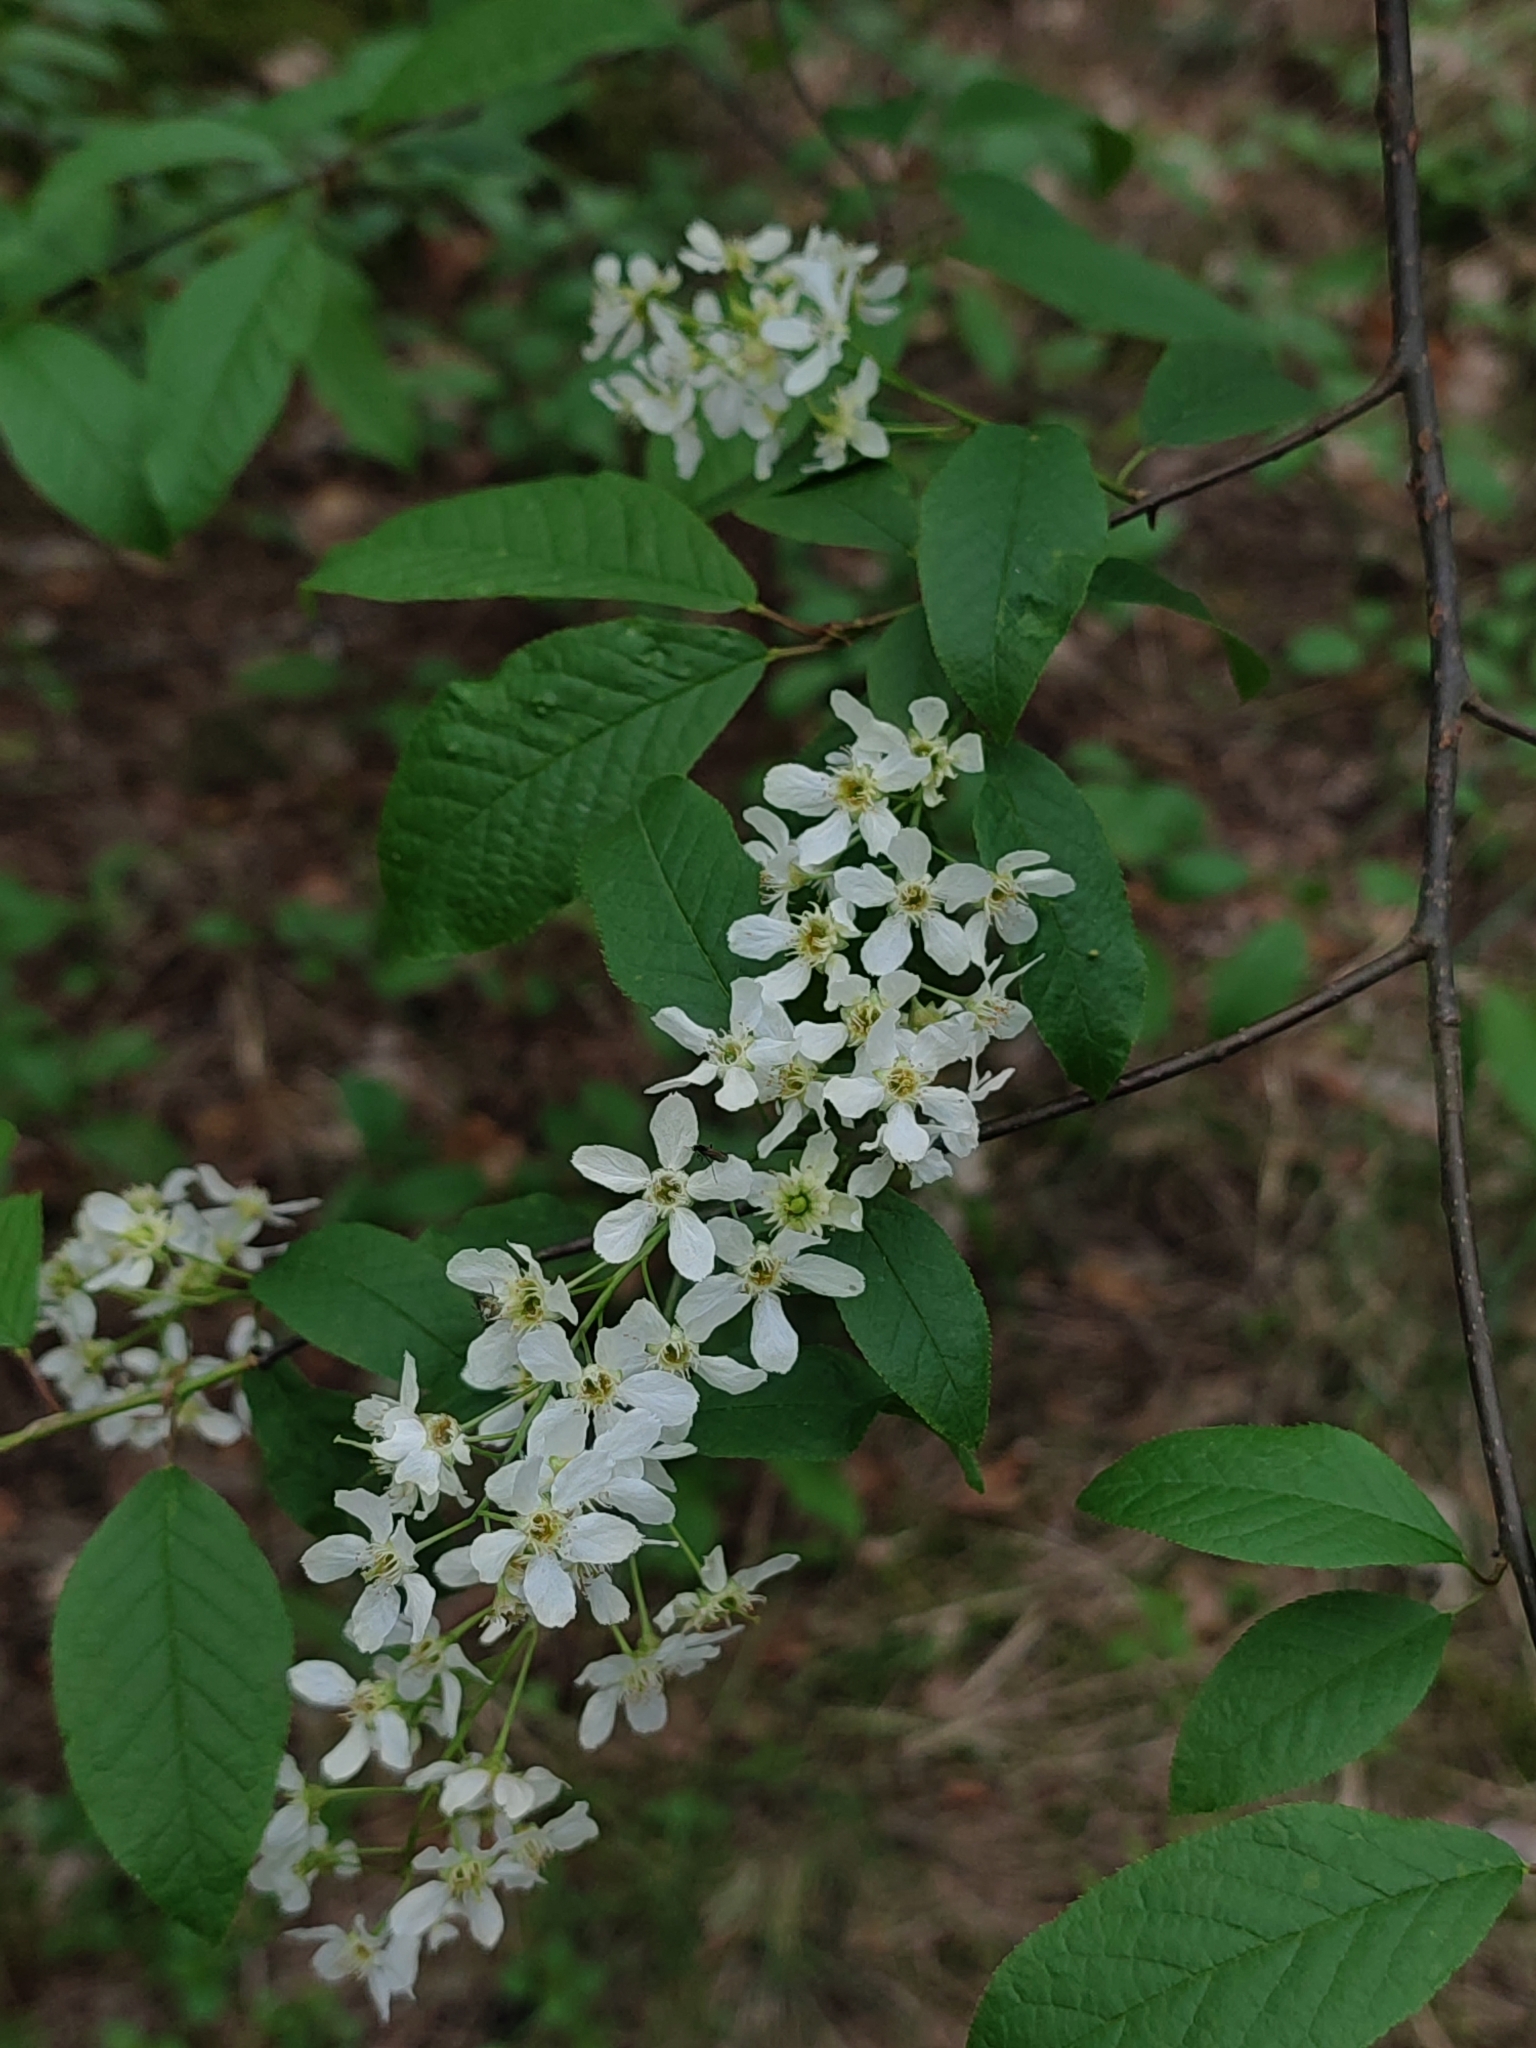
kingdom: Plantae
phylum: Tracheophyta
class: Magnoliopsida
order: Rosales
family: Rosaceae
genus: Prunus
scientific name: Prunus padus
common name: Bird cherry
